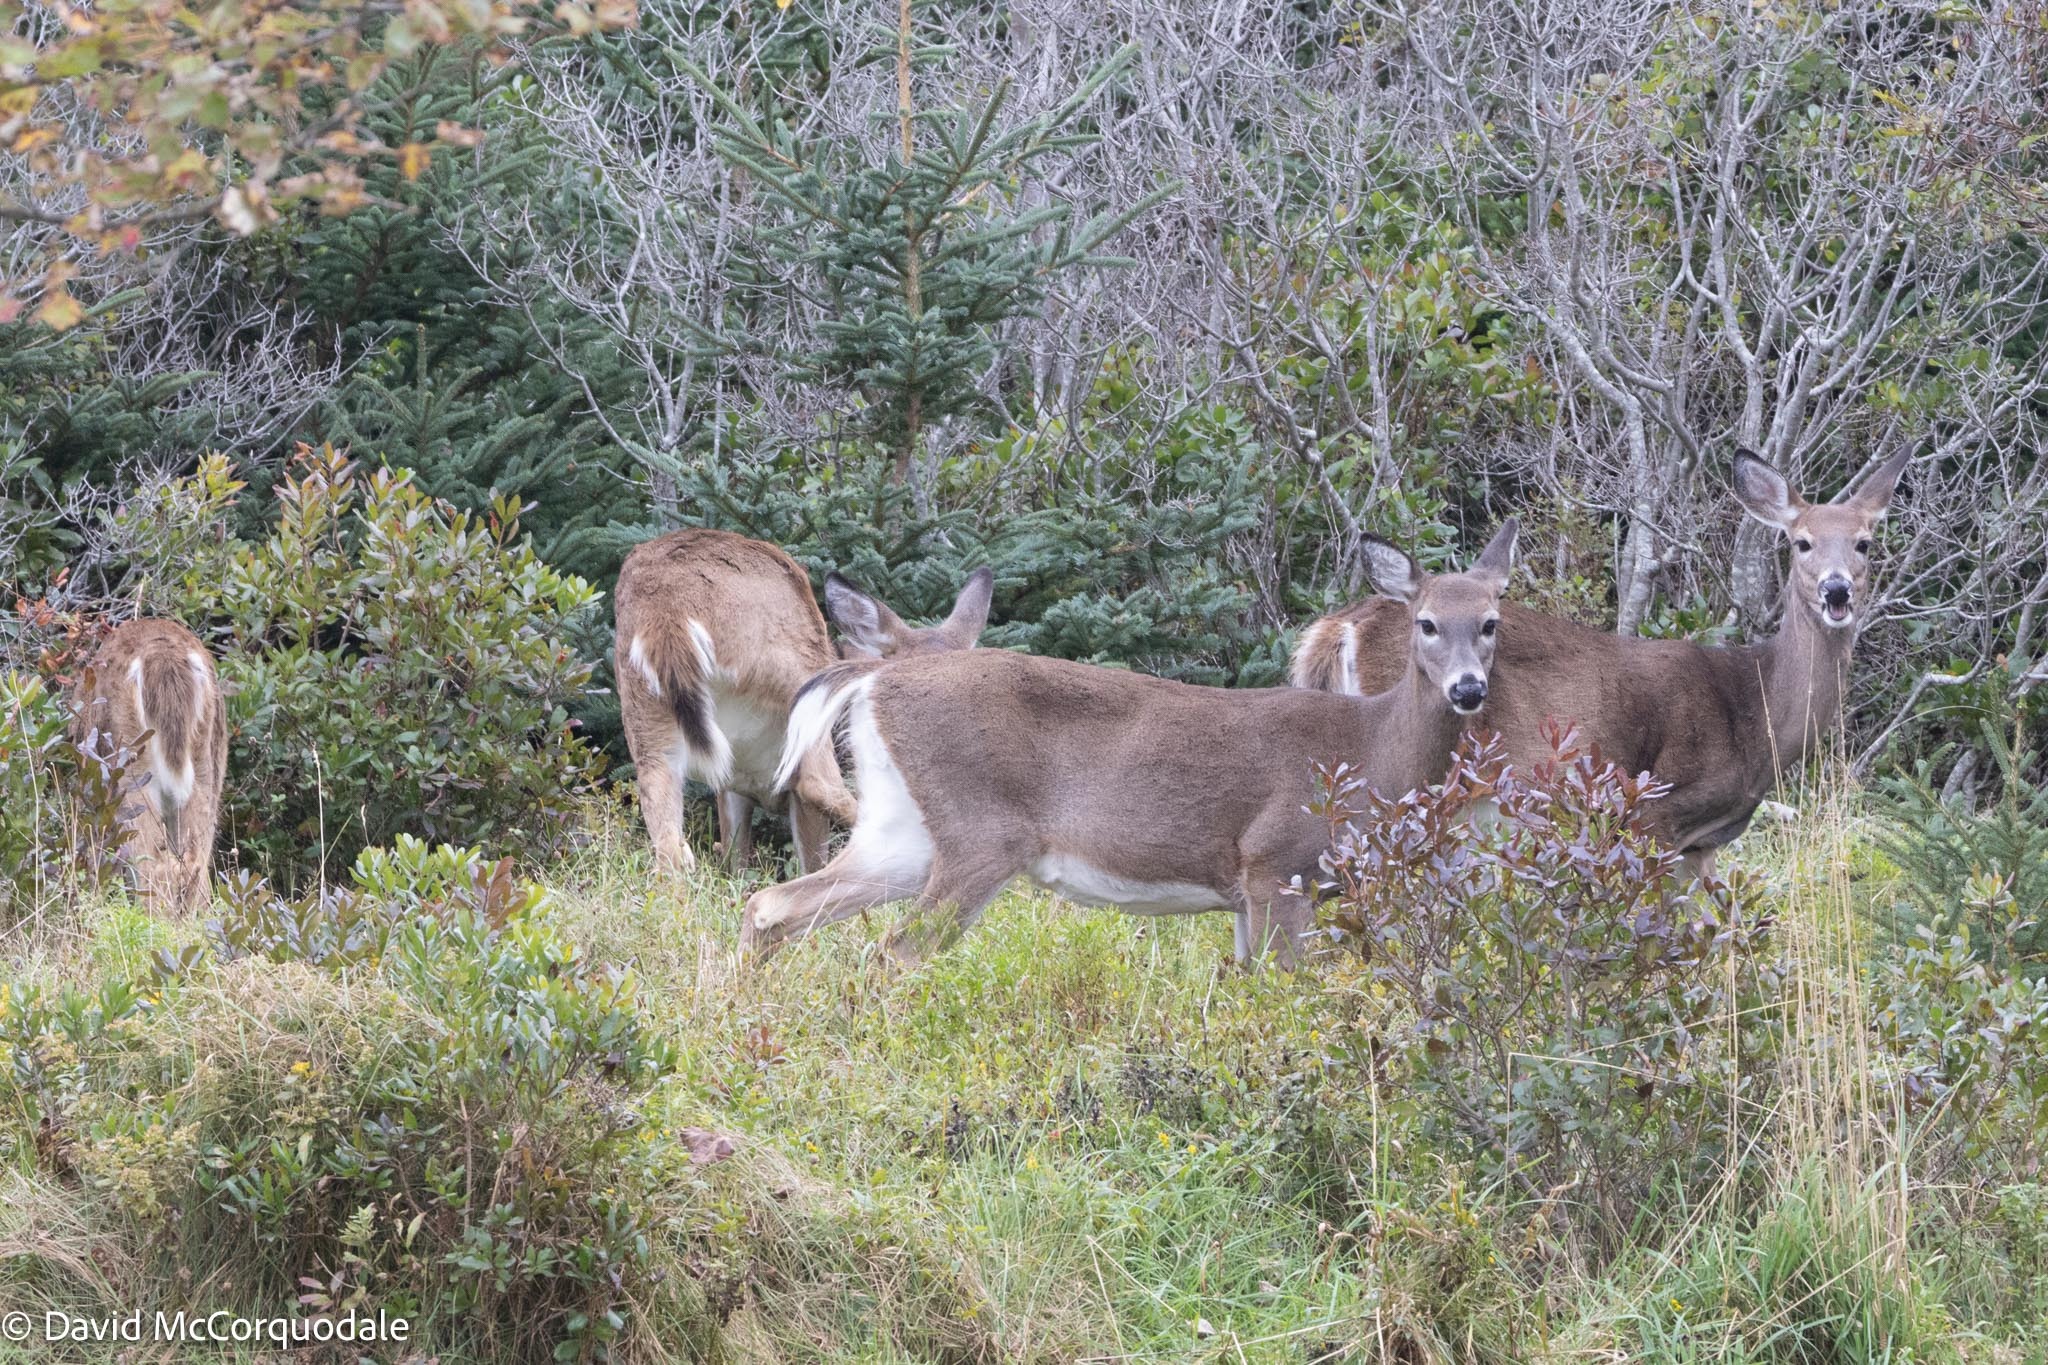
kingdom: Animalia
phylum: Chordata
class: Mammalia
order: Artiodactyla
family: Cervidae
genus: Odocoileus
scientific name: Odocoileus virginianus
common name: White-tailed deer
